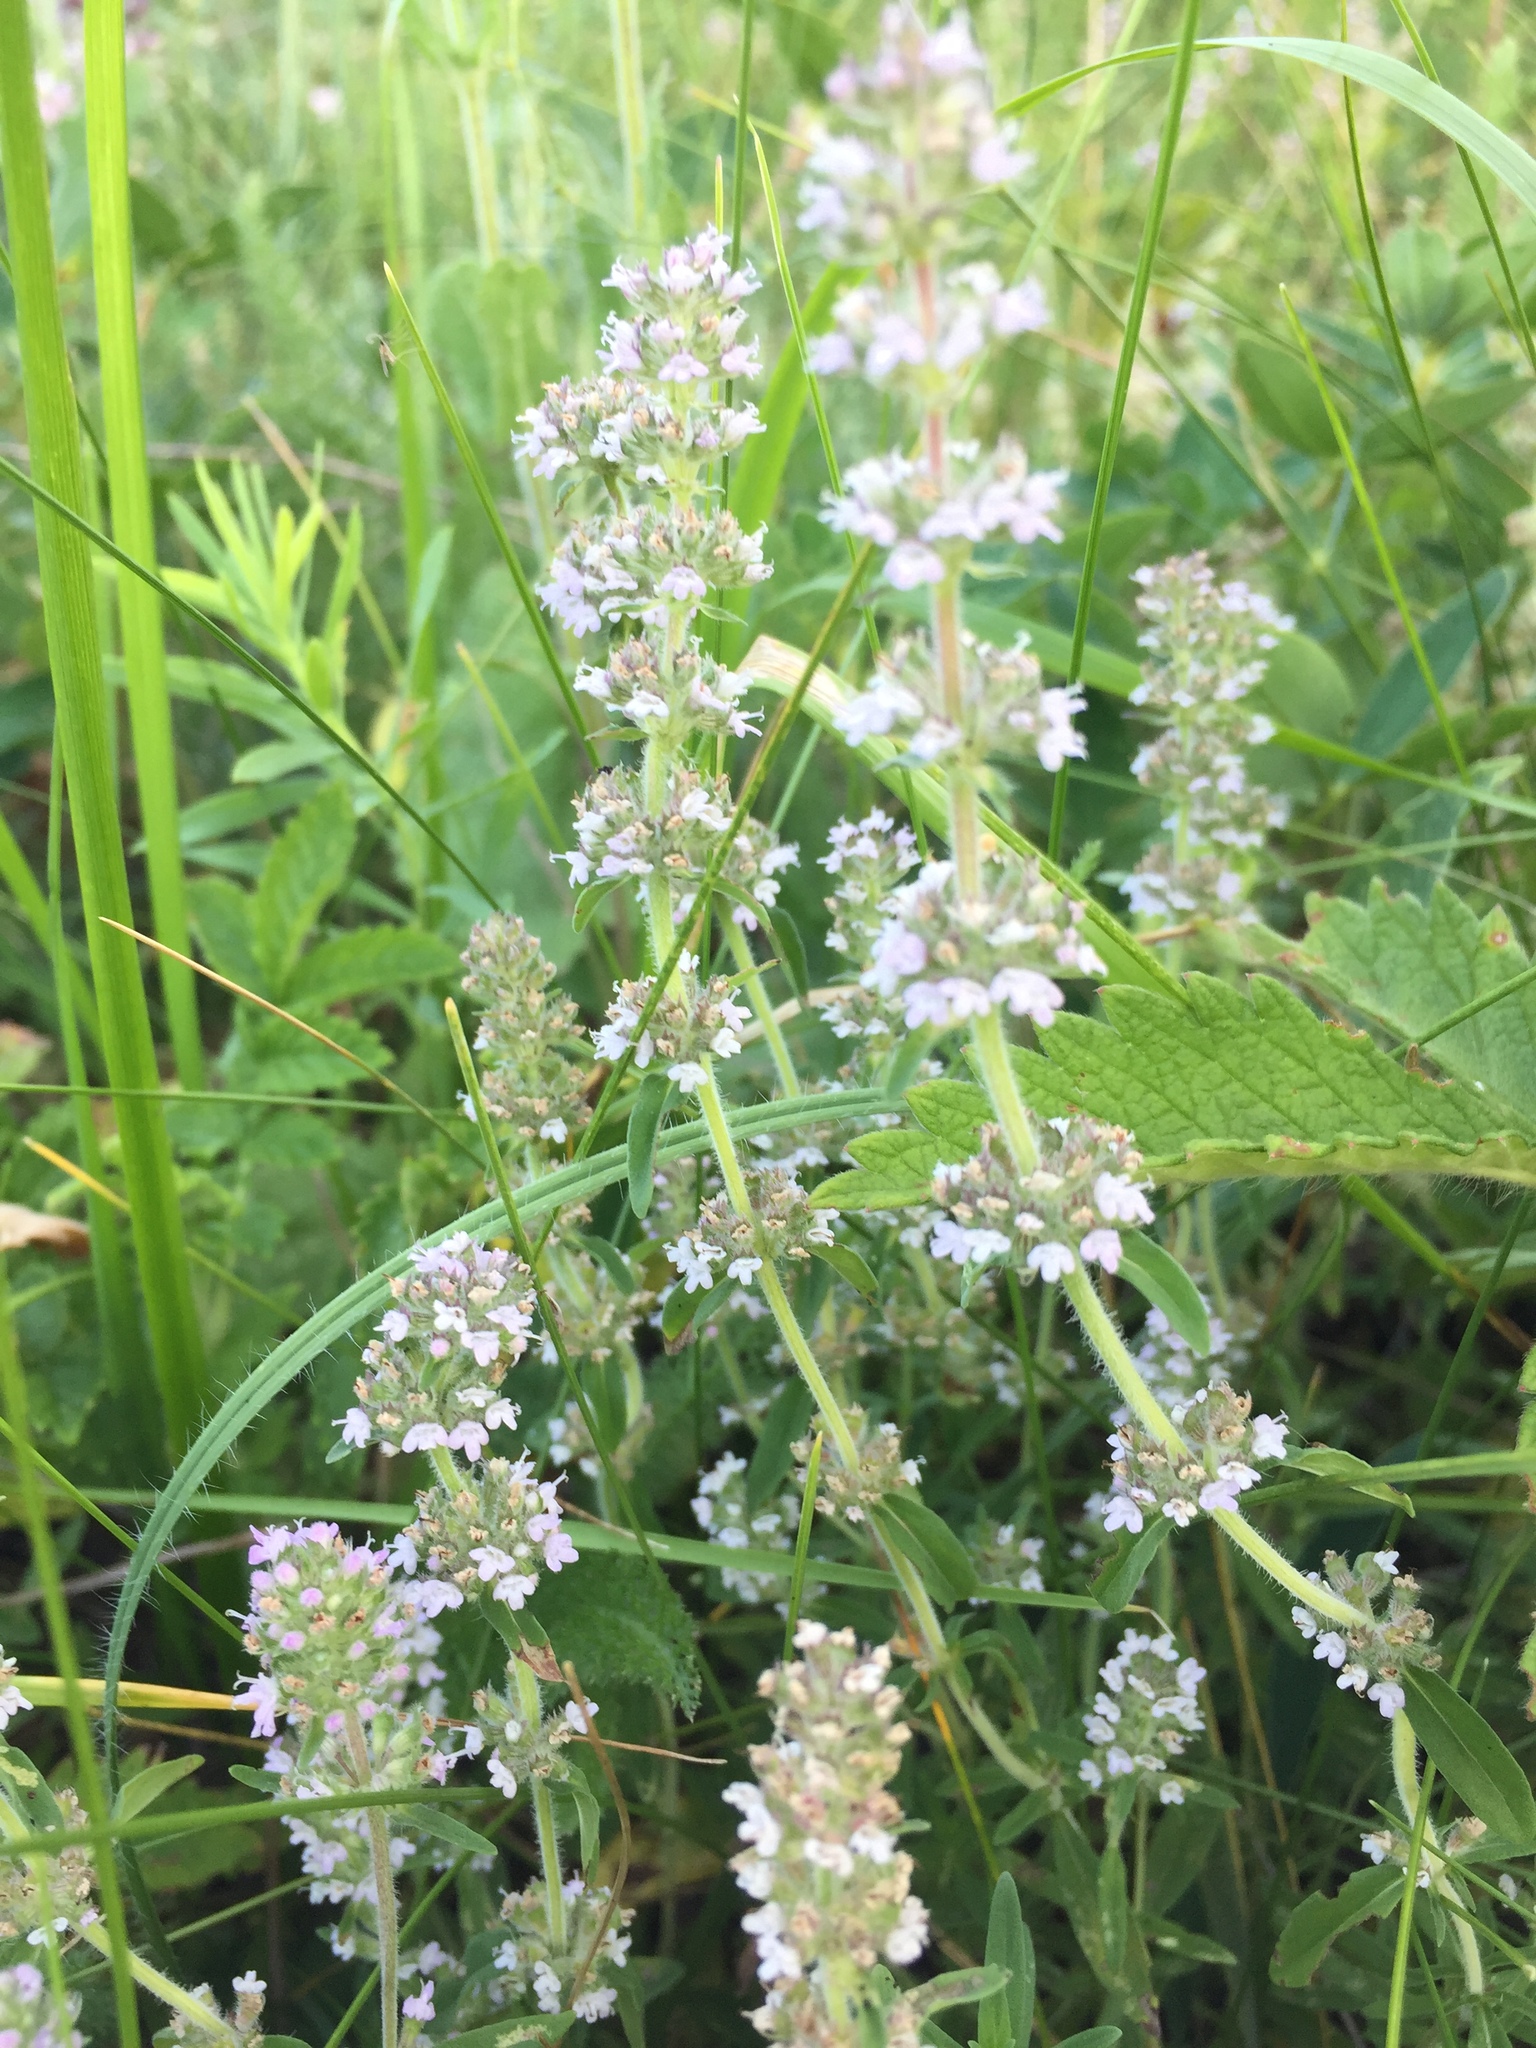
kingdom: Plantae
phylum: Tracheophyta
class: Magnoliopsida
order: Lamiales
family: Lamiaceae
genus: Thymus
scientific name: Thymus pannonicus
